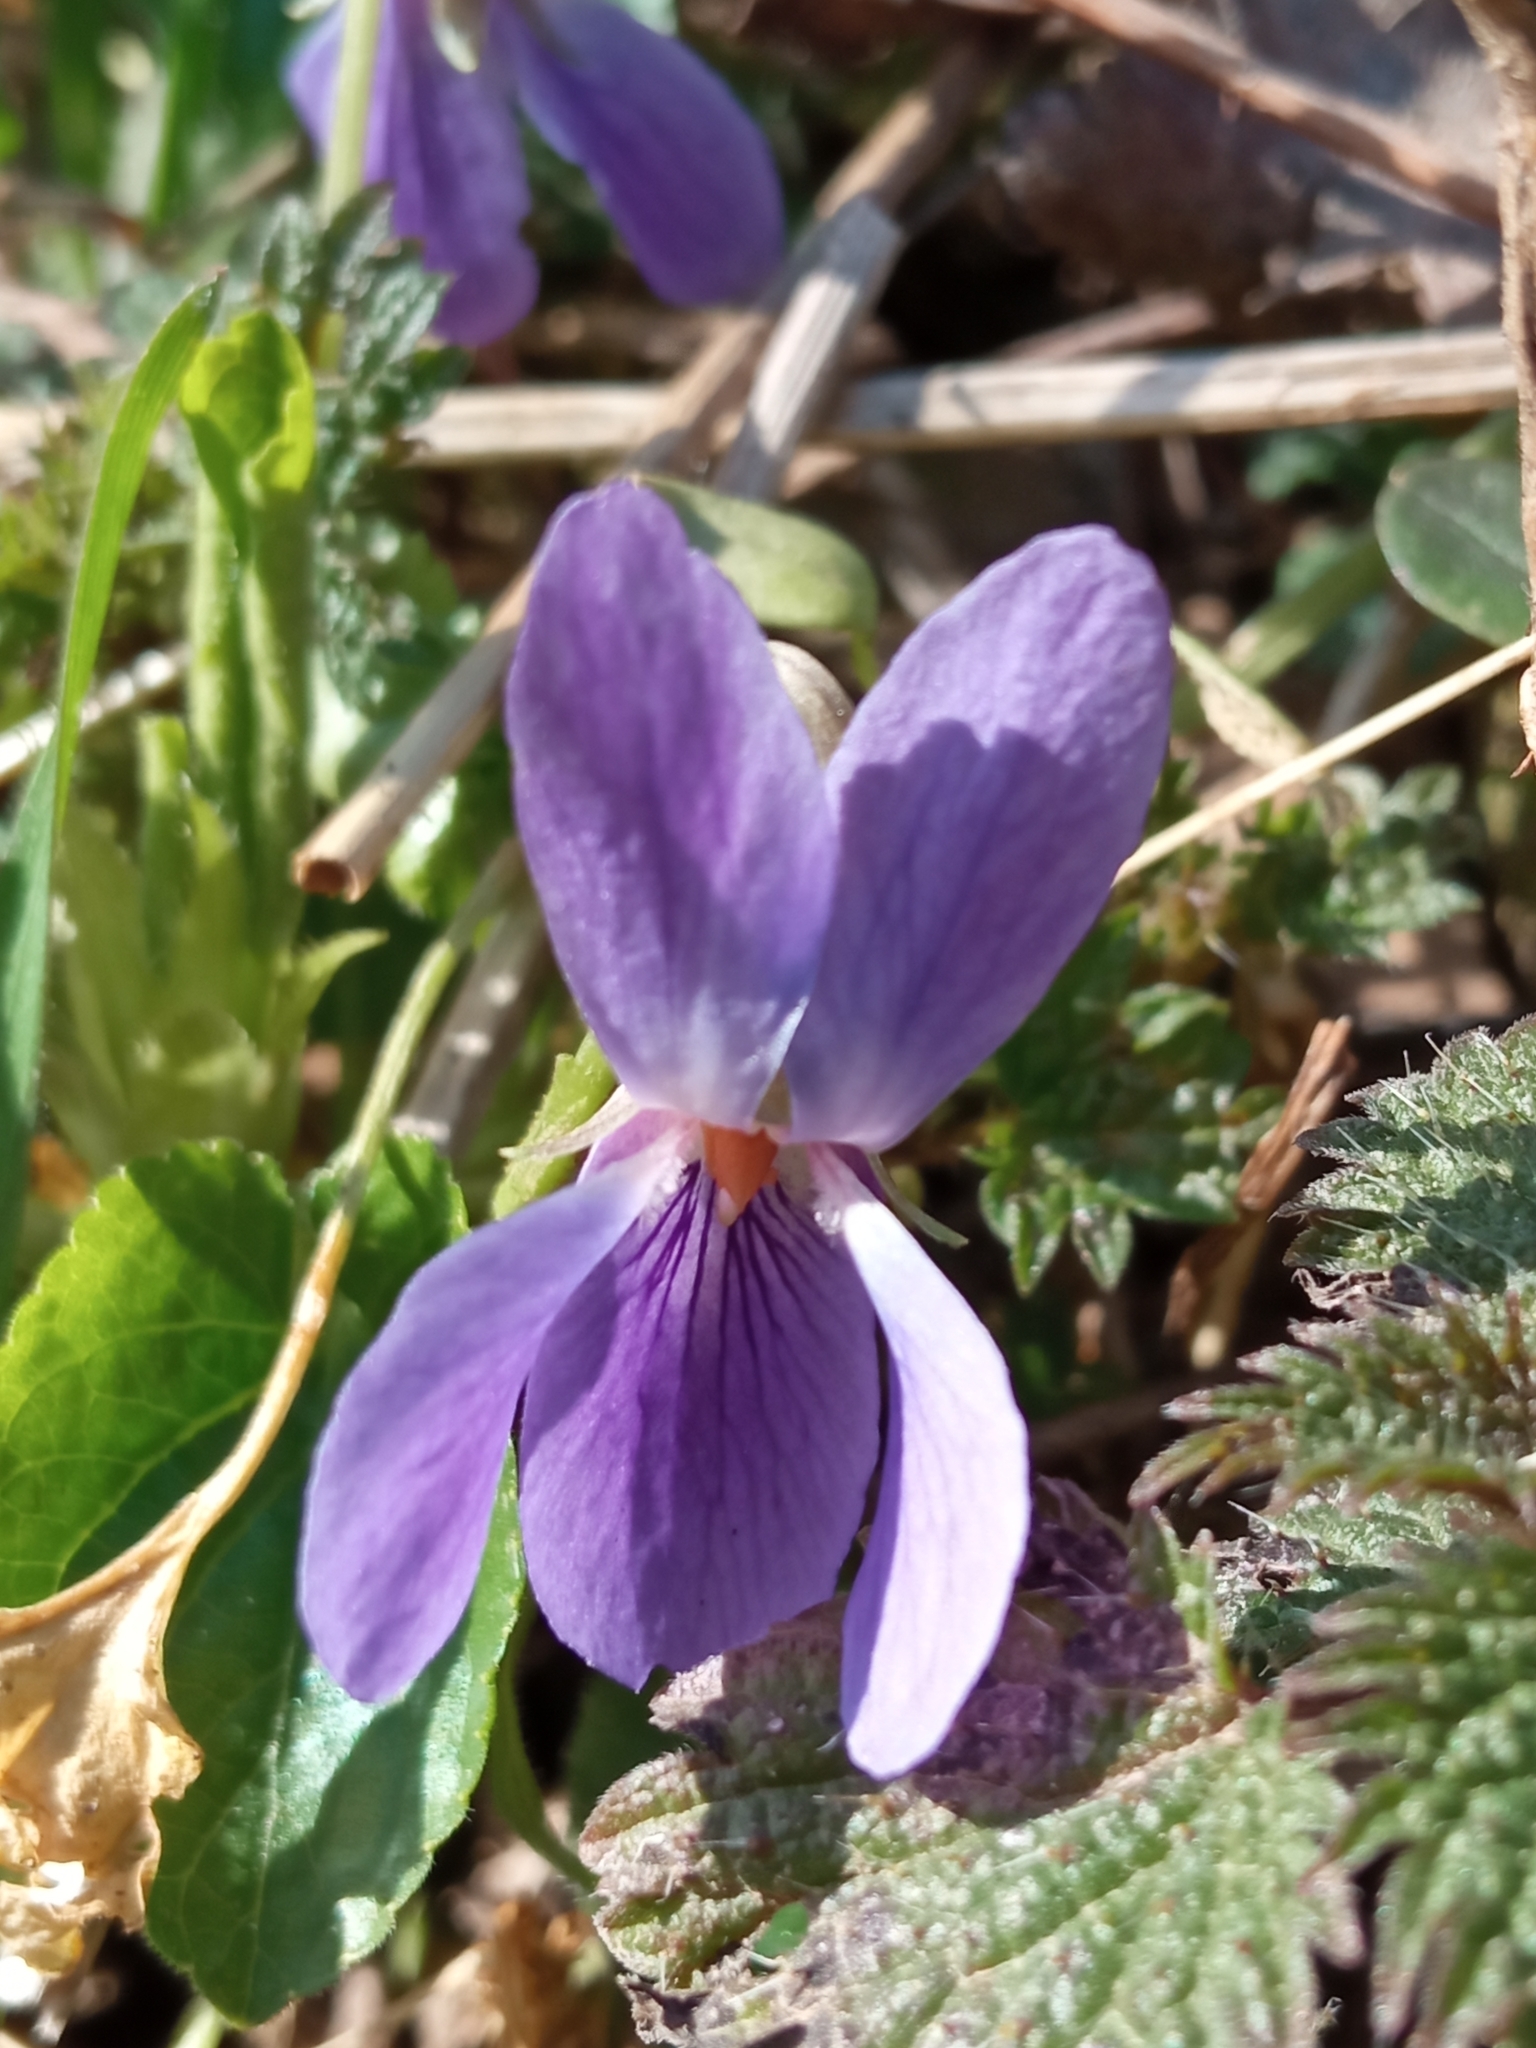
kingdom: Plantae
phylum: Tracheophyta
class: Magnoliopsida
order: Malpighiales
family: Violaceae
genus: Viola
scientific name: Viola odorata
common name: Sweet violet
